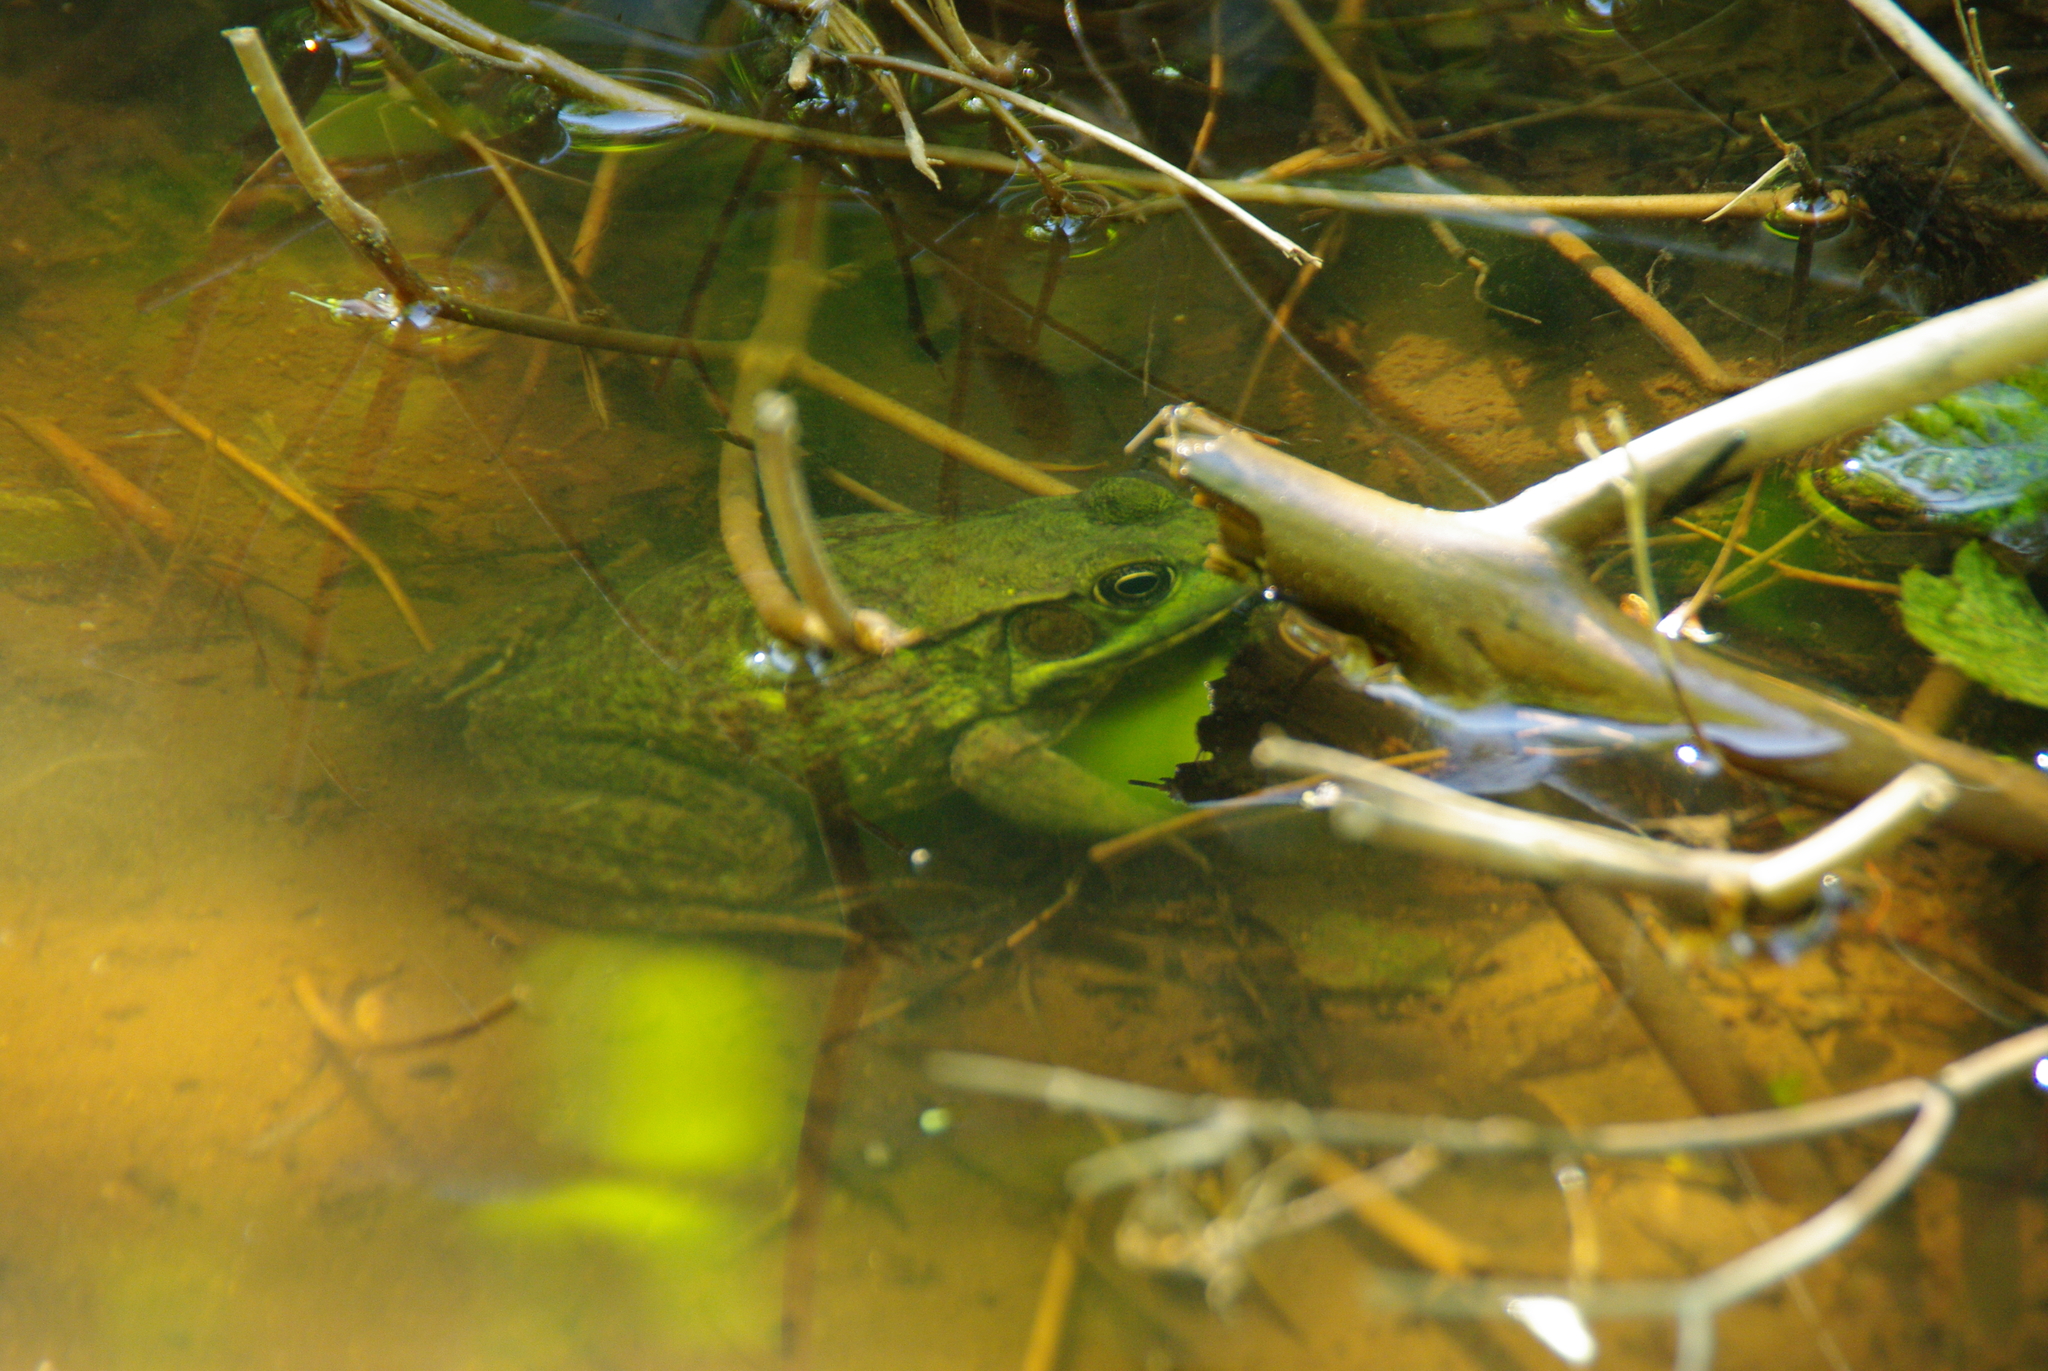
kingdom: Animalia
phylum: Chordata
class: Amphibia
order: Anura
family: Ranidae
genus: Lithobates
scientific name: Lithobates clamitans
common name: Green frog
